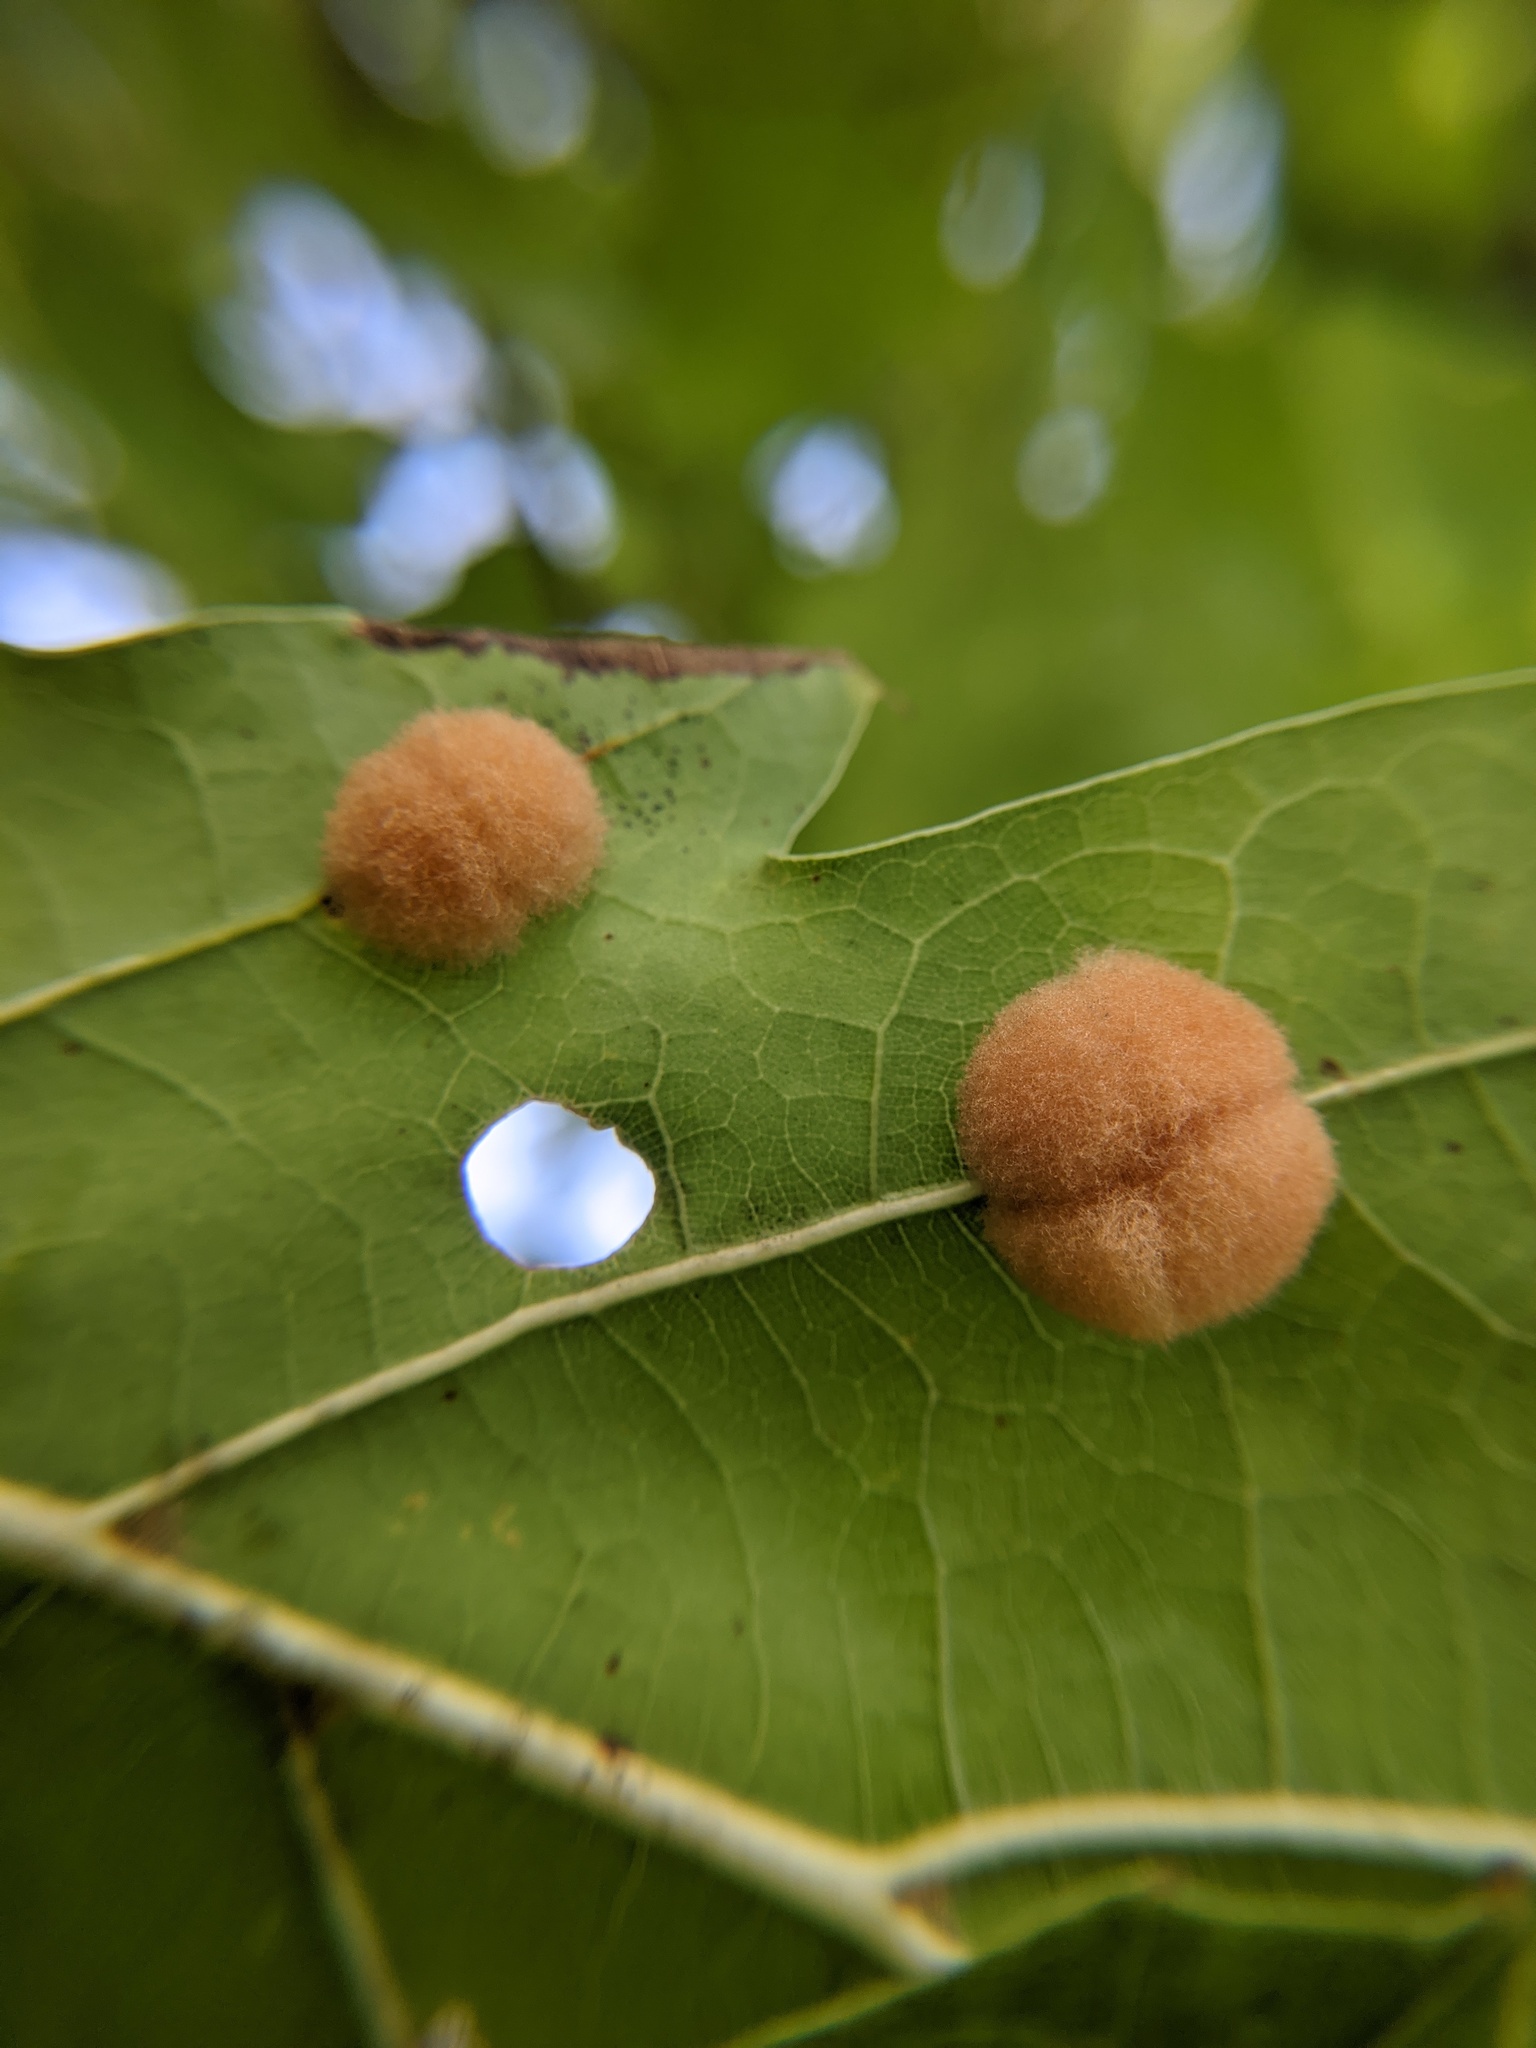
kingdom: Animalia
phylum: Arthropoda
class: Insecta
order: Hymenoptera
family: Cynipidae
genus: Callirhytis
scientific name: Callirhytis
